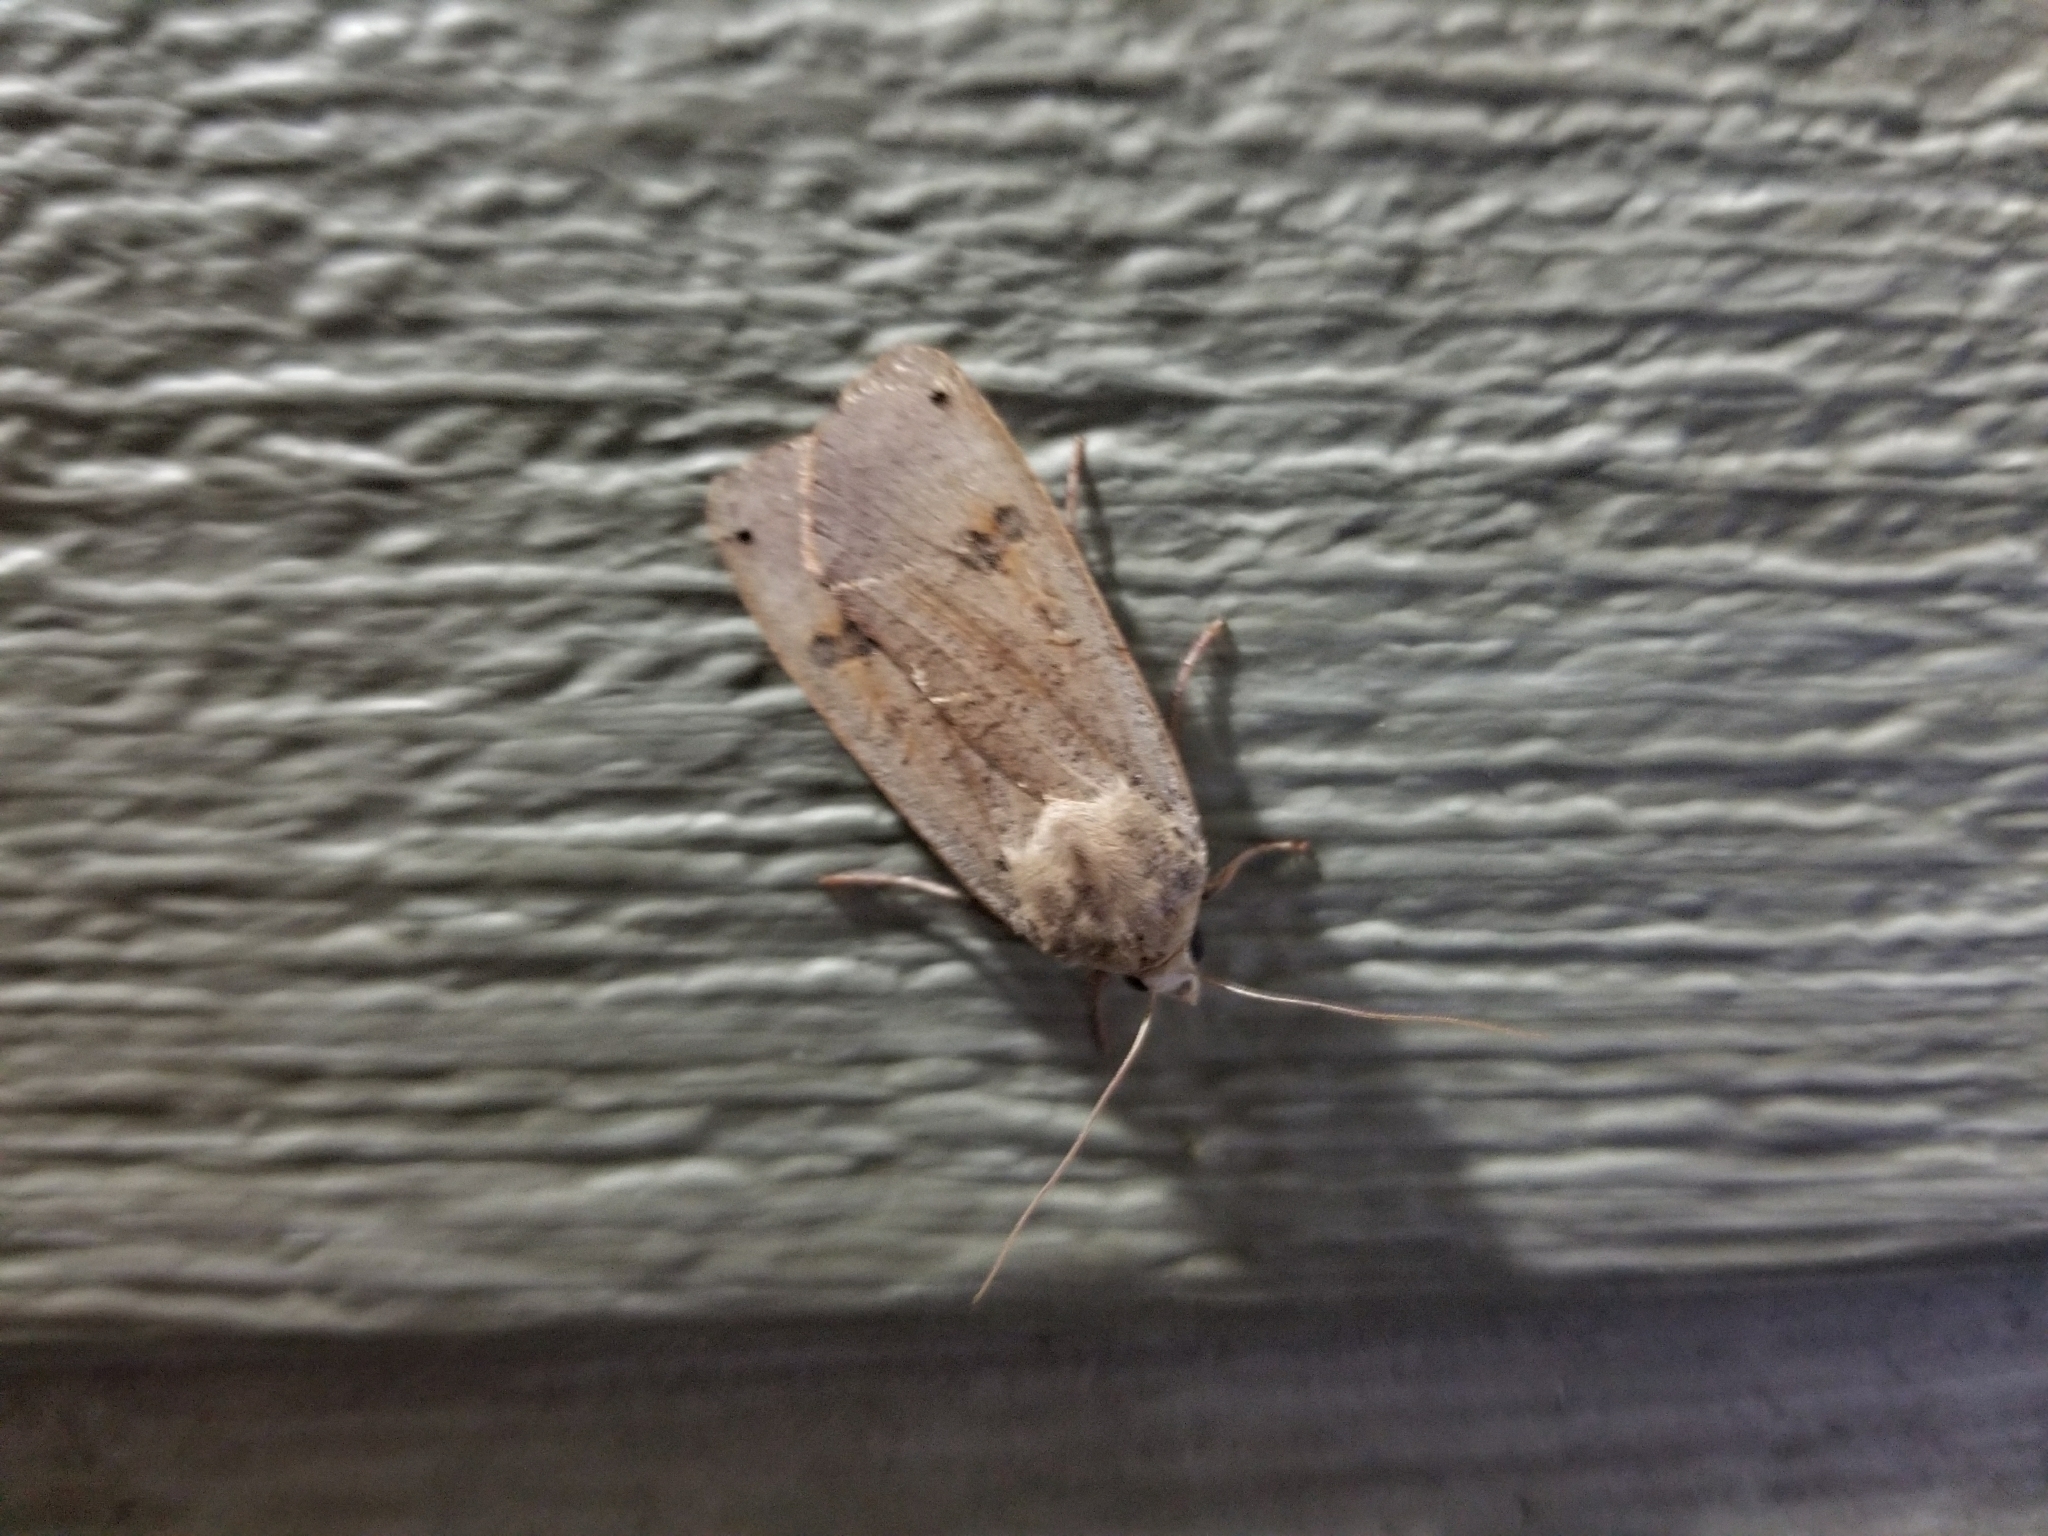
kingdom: Animalia
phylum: Arthropoda
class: Insecta
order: Lepidoptera
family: Noctuidae
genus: Noctua
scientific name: Noctua pronuba
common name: Large yellow underwing
